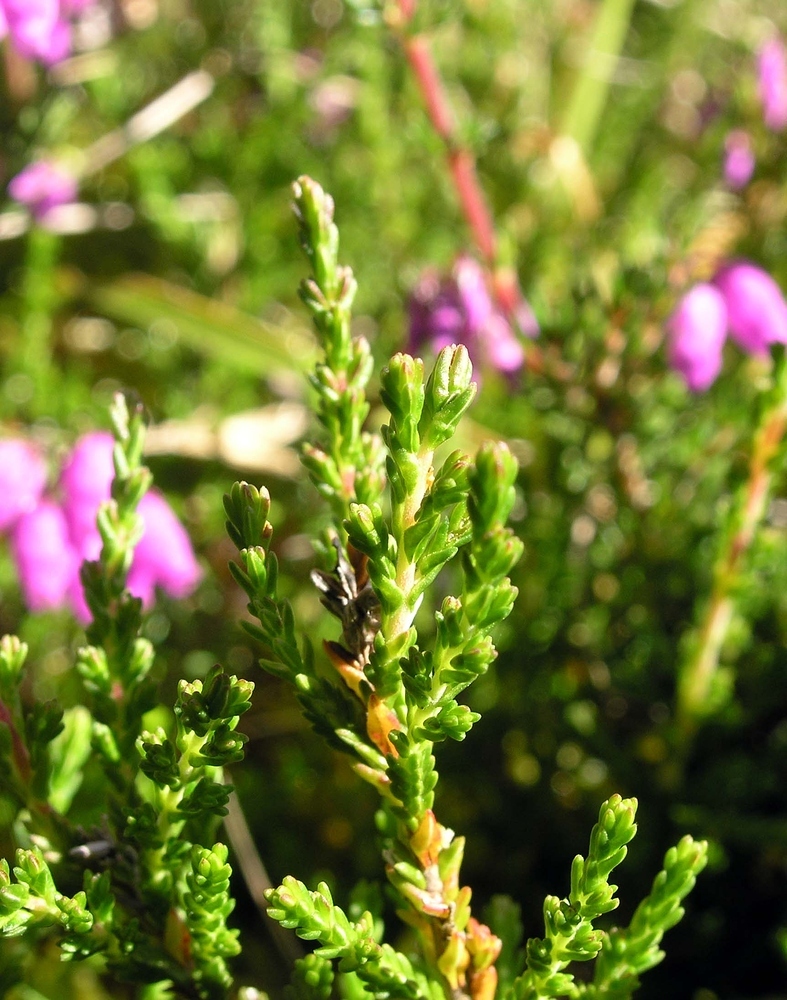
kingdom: Plantae
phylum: Tracheophyta
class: Magnoliopsida
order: Ericales
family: Ericaceae
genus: Erica
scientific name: Erica cinerea
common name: Bell heather
